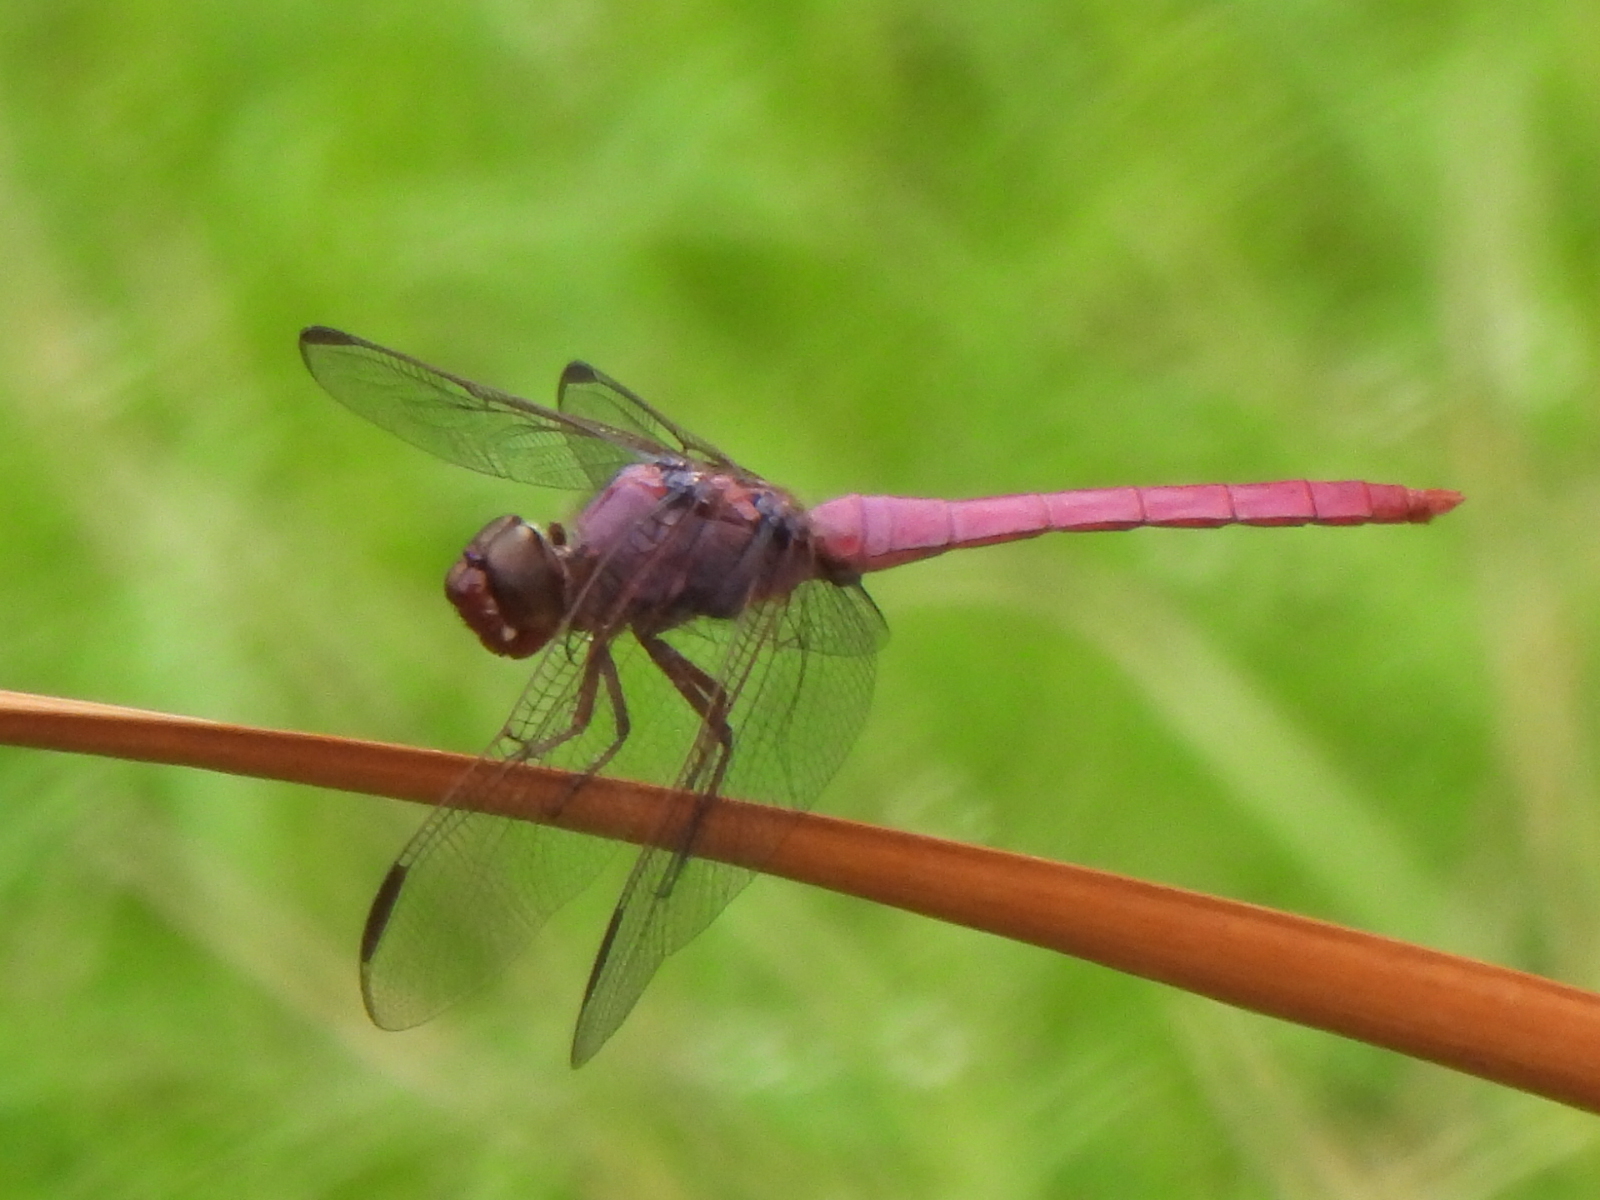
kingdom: Animalia
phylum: Arthropoda
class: Insecta
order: Odonata
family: Libellulidae
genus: Orthemis
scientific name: Orthemis ferruginea
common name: Roseate skimmer
